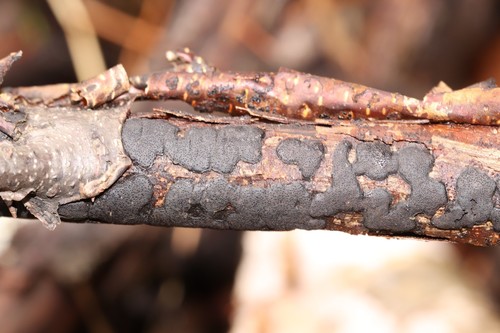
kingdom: Fungi
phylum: Ascomycota
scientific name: Ascomycota
